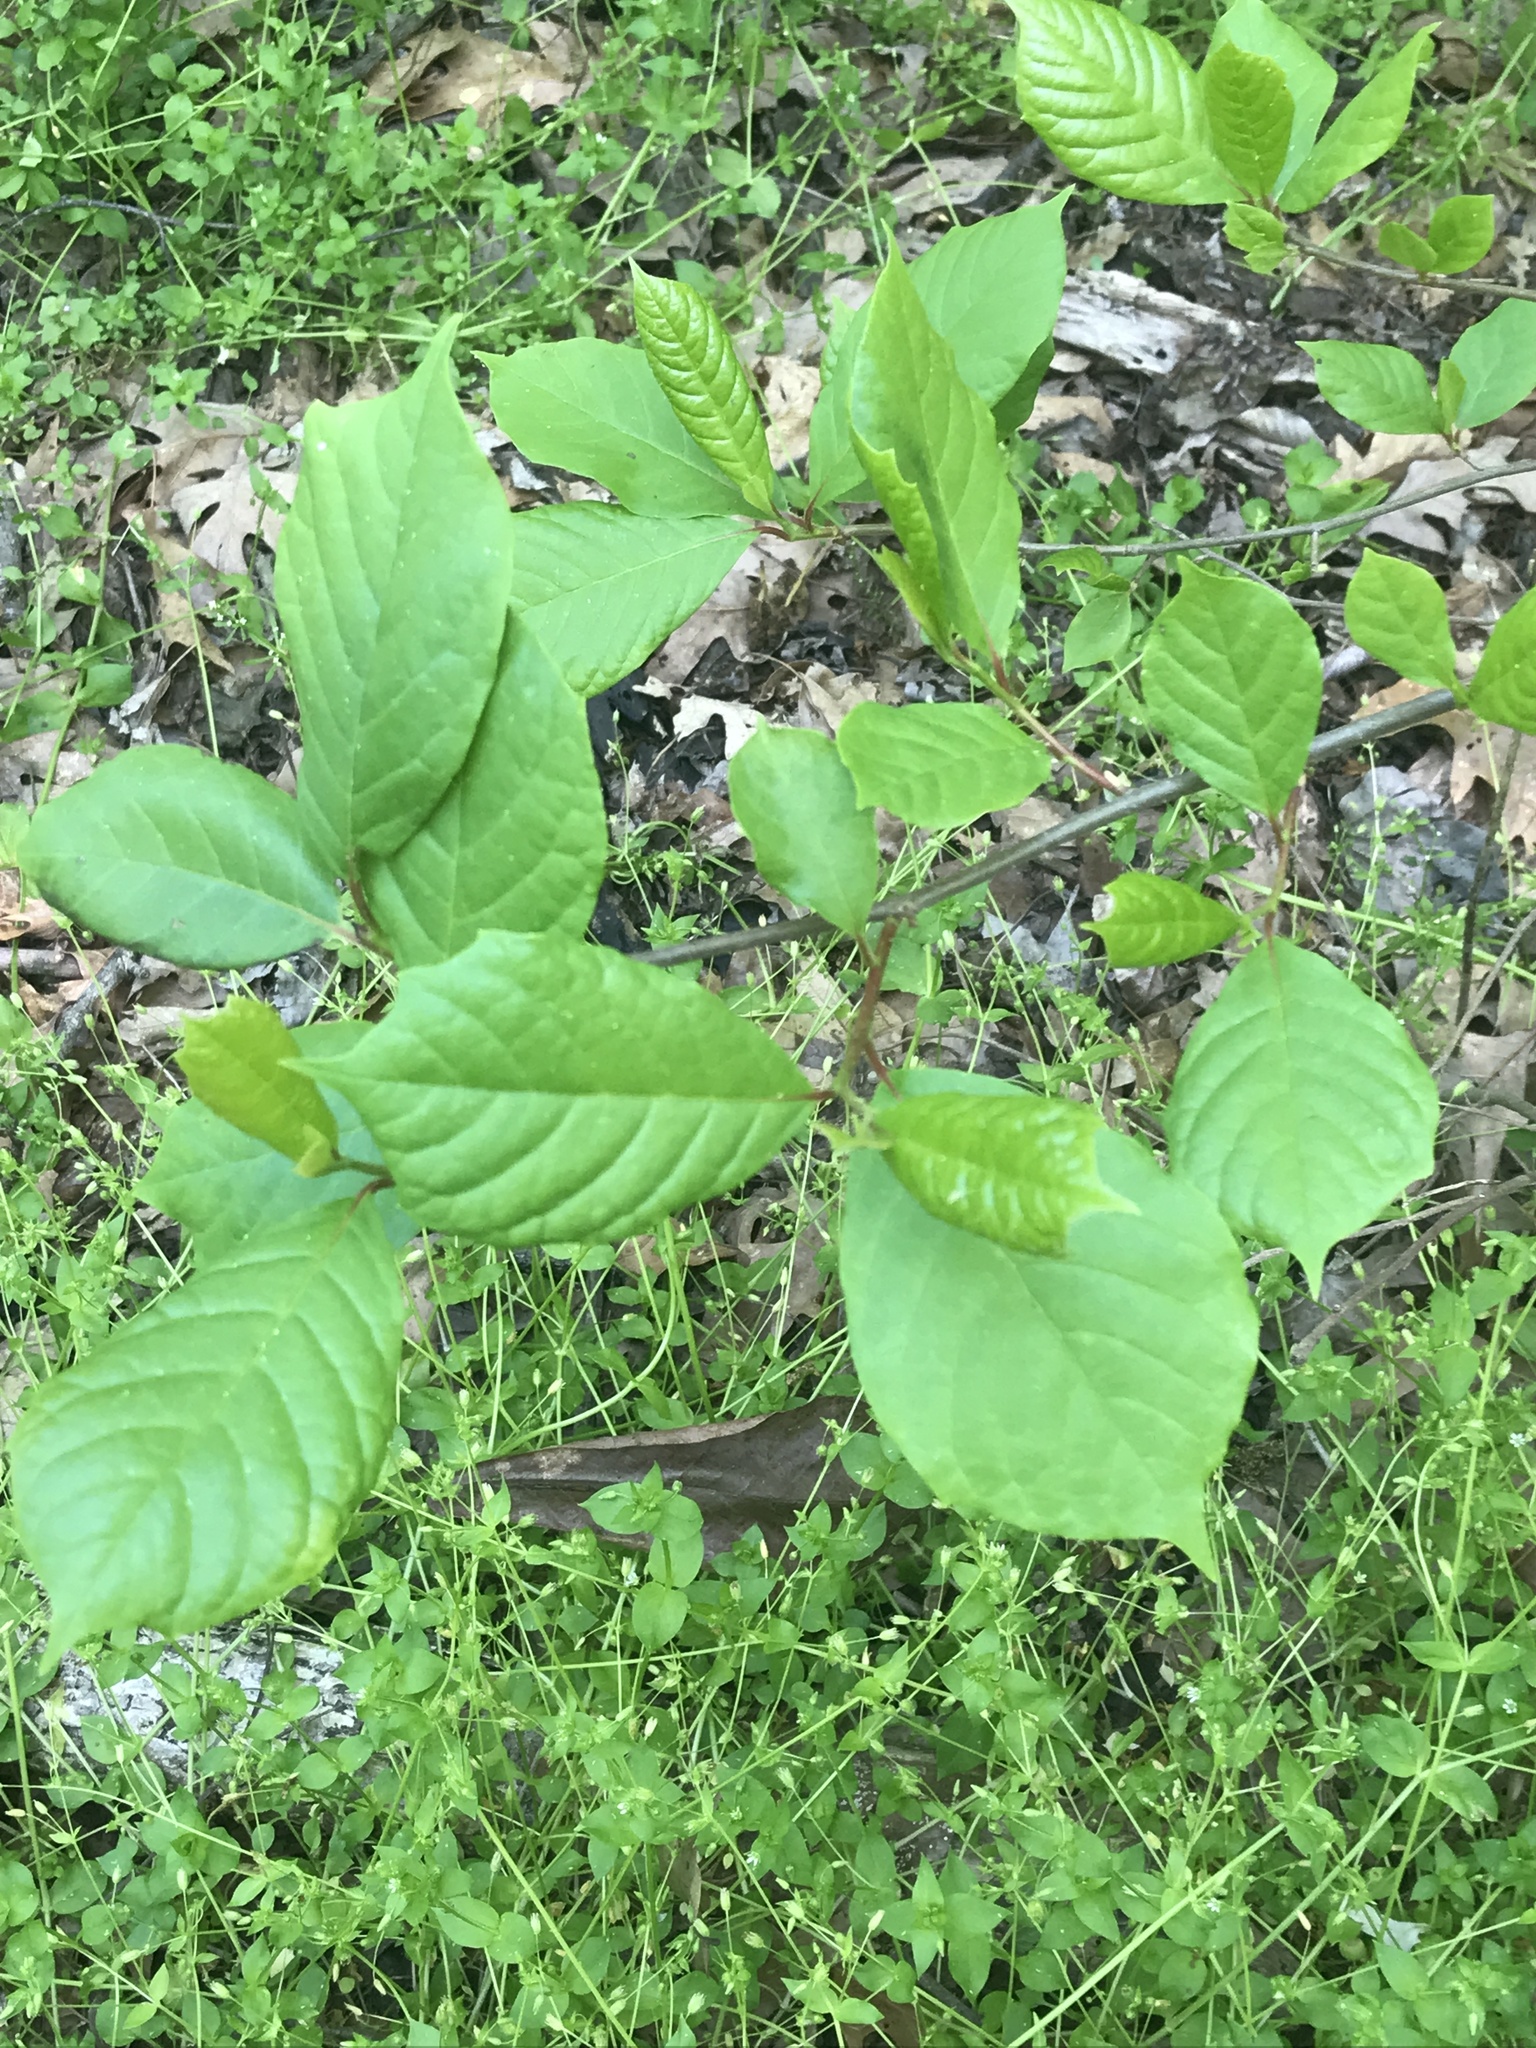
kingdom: Plantae
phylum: Tracheophyta
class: Magnoliopsida
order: Cornales
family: Nyssaceae
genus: Nyssa
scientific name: Nyssa sylvatica
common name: Black tupelo
